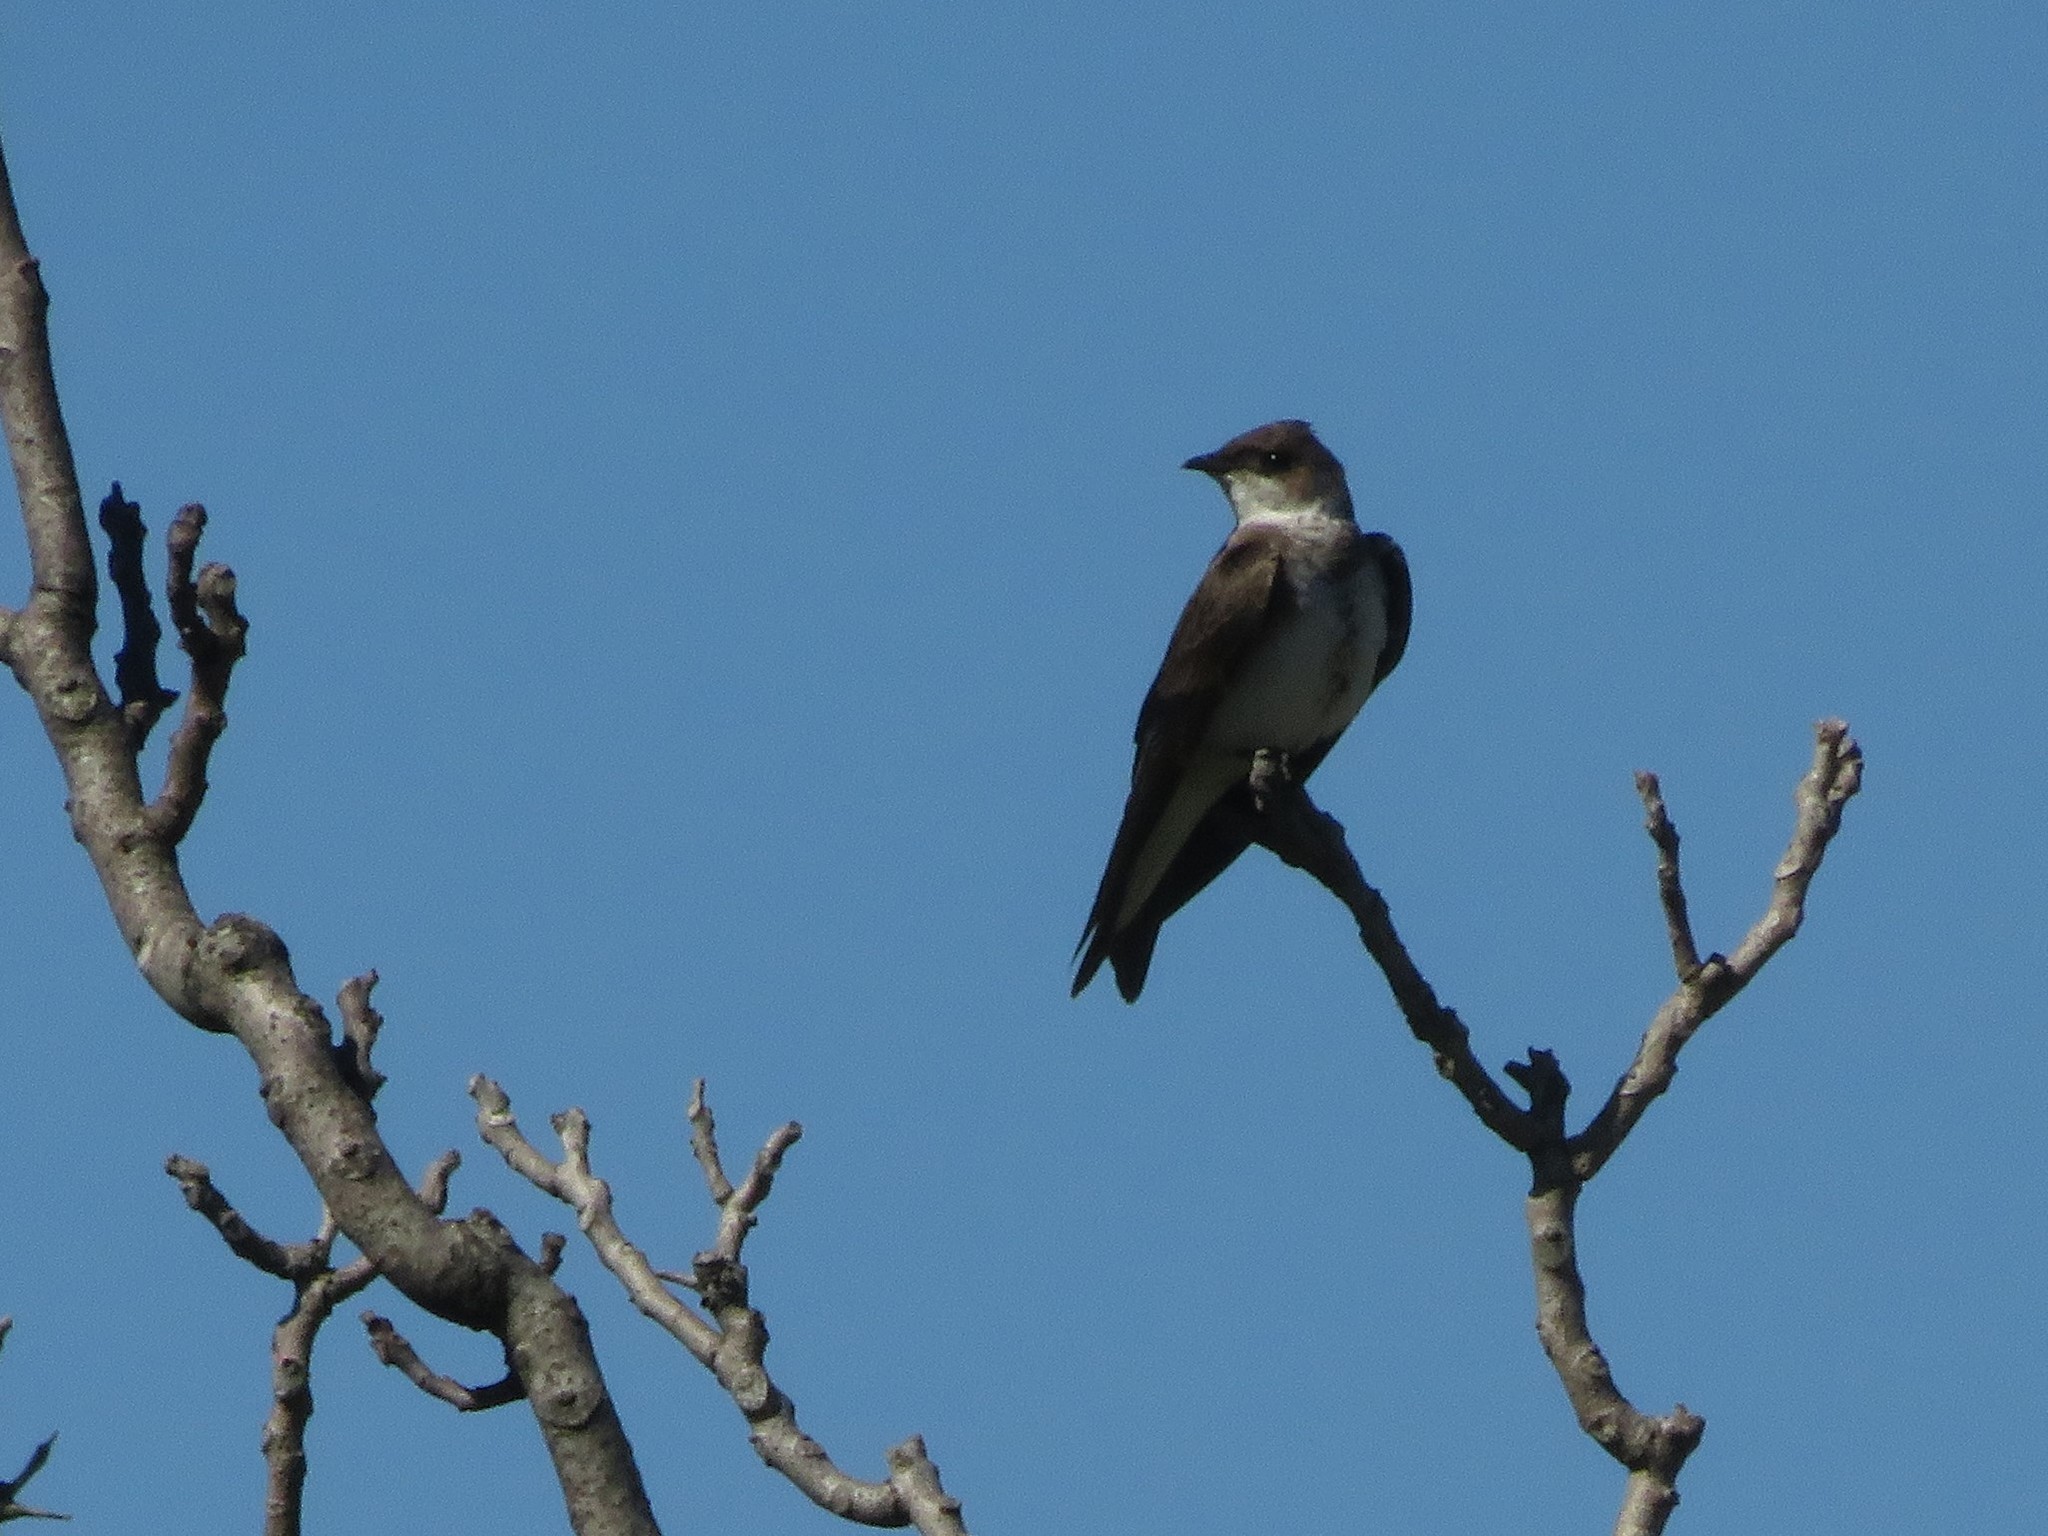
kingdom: Animalia
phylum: Chordata
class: Aves
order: Passeriformes
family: Hirundinidae
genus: Progne
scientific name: Progne tapera
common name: Brown-chested martin
